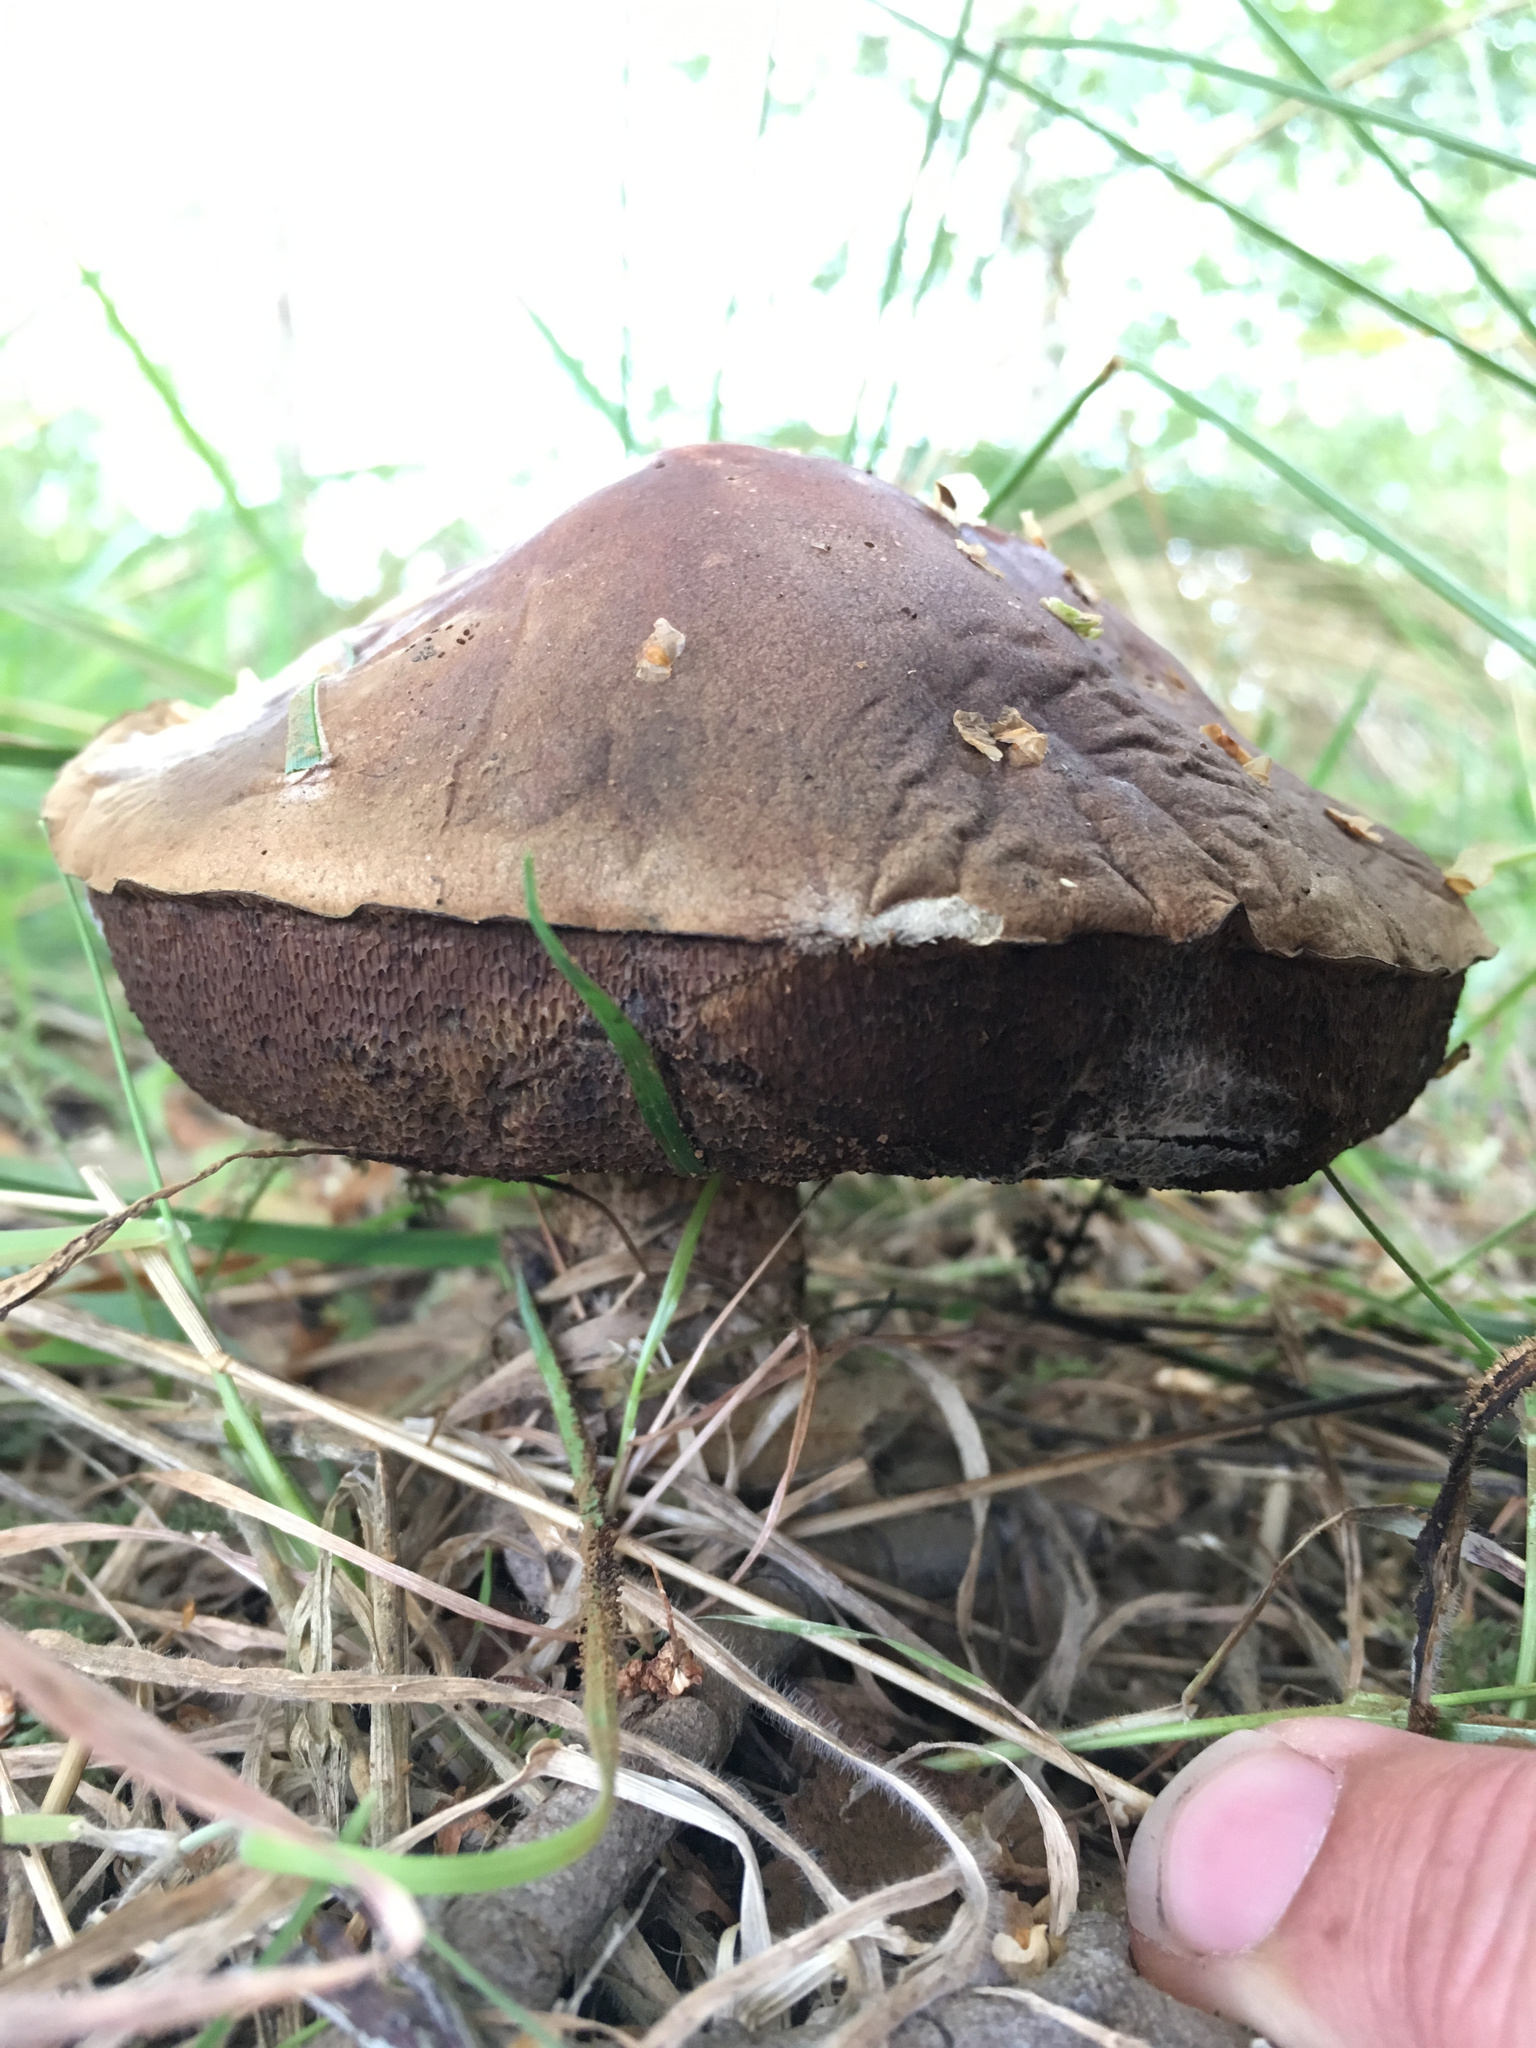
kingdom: Fungi
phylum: Basidiomycota
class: Agaricomycetes
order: Boletales
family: Boletaceae
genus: Leccinum
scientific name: Leccinum scabrum
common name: Blushing bolete
